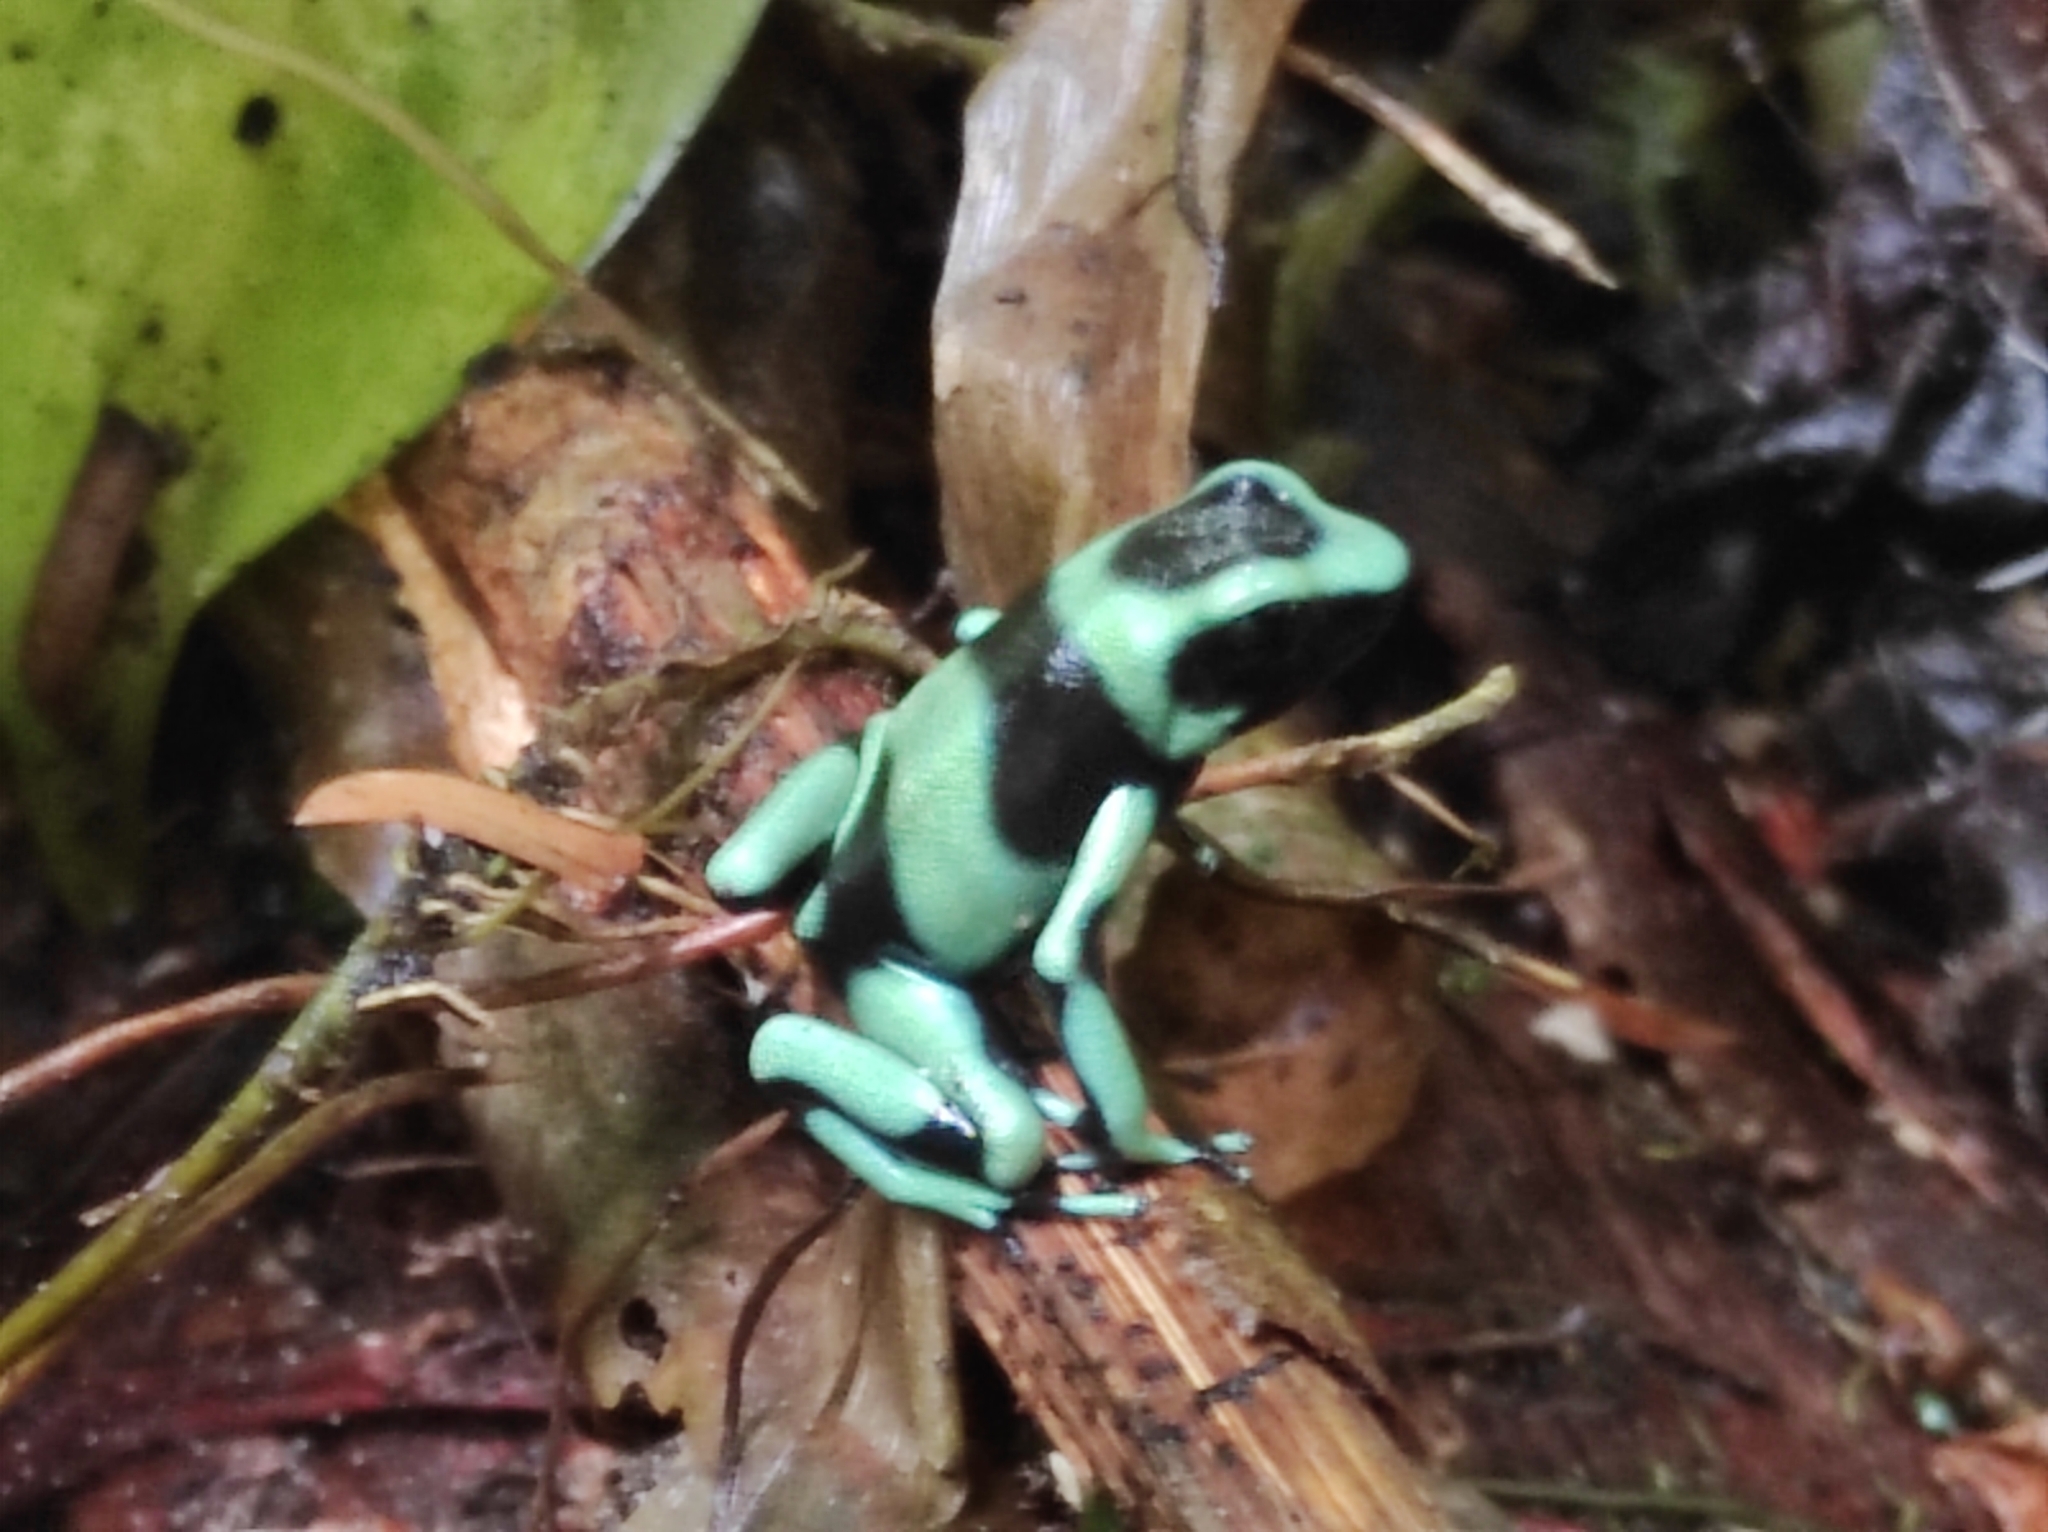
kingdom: Animalia
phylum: Chordata
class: Amphibia
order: Anura
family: Dendrobatidae
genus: Dendrobates
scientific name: Dendrobates auratus
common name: Green and black poison dart frog
